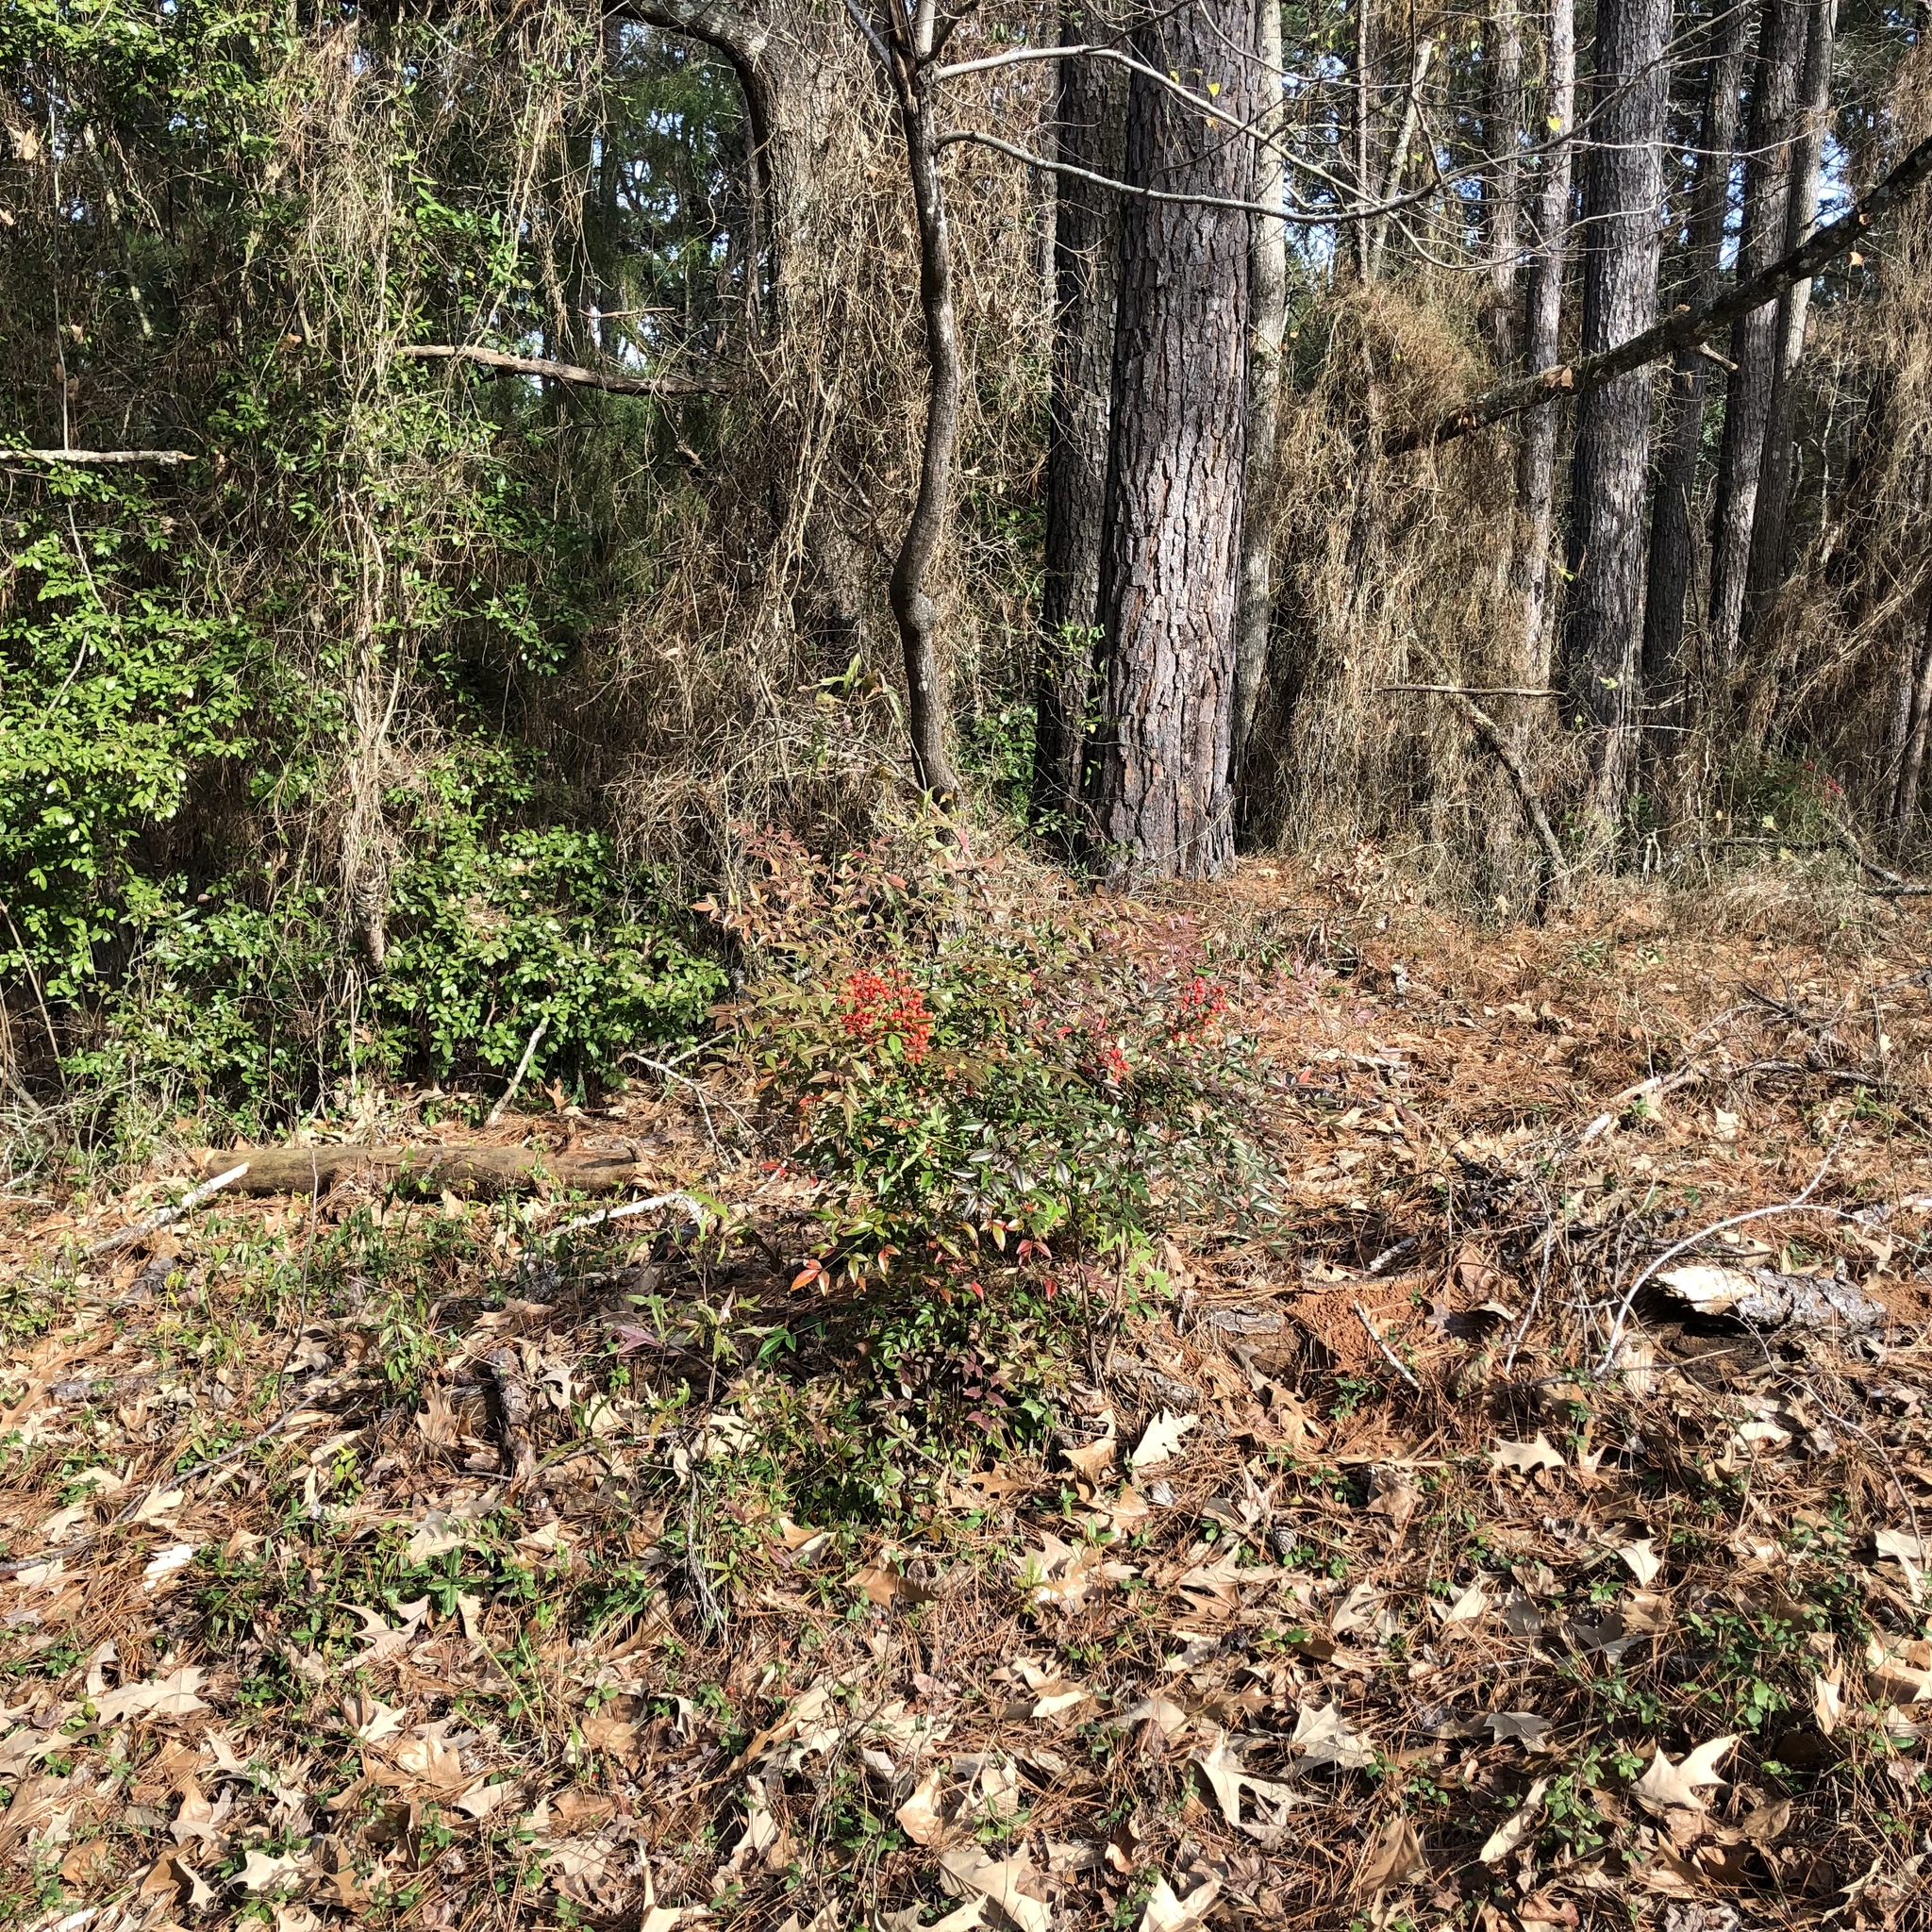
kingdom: Plantae
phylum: Tracheophyta
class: Magnoliopsida
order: Ranunculales
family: Berberidaceae
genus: Nandina
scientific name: Nandina domestica
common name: Sacred bamboo
